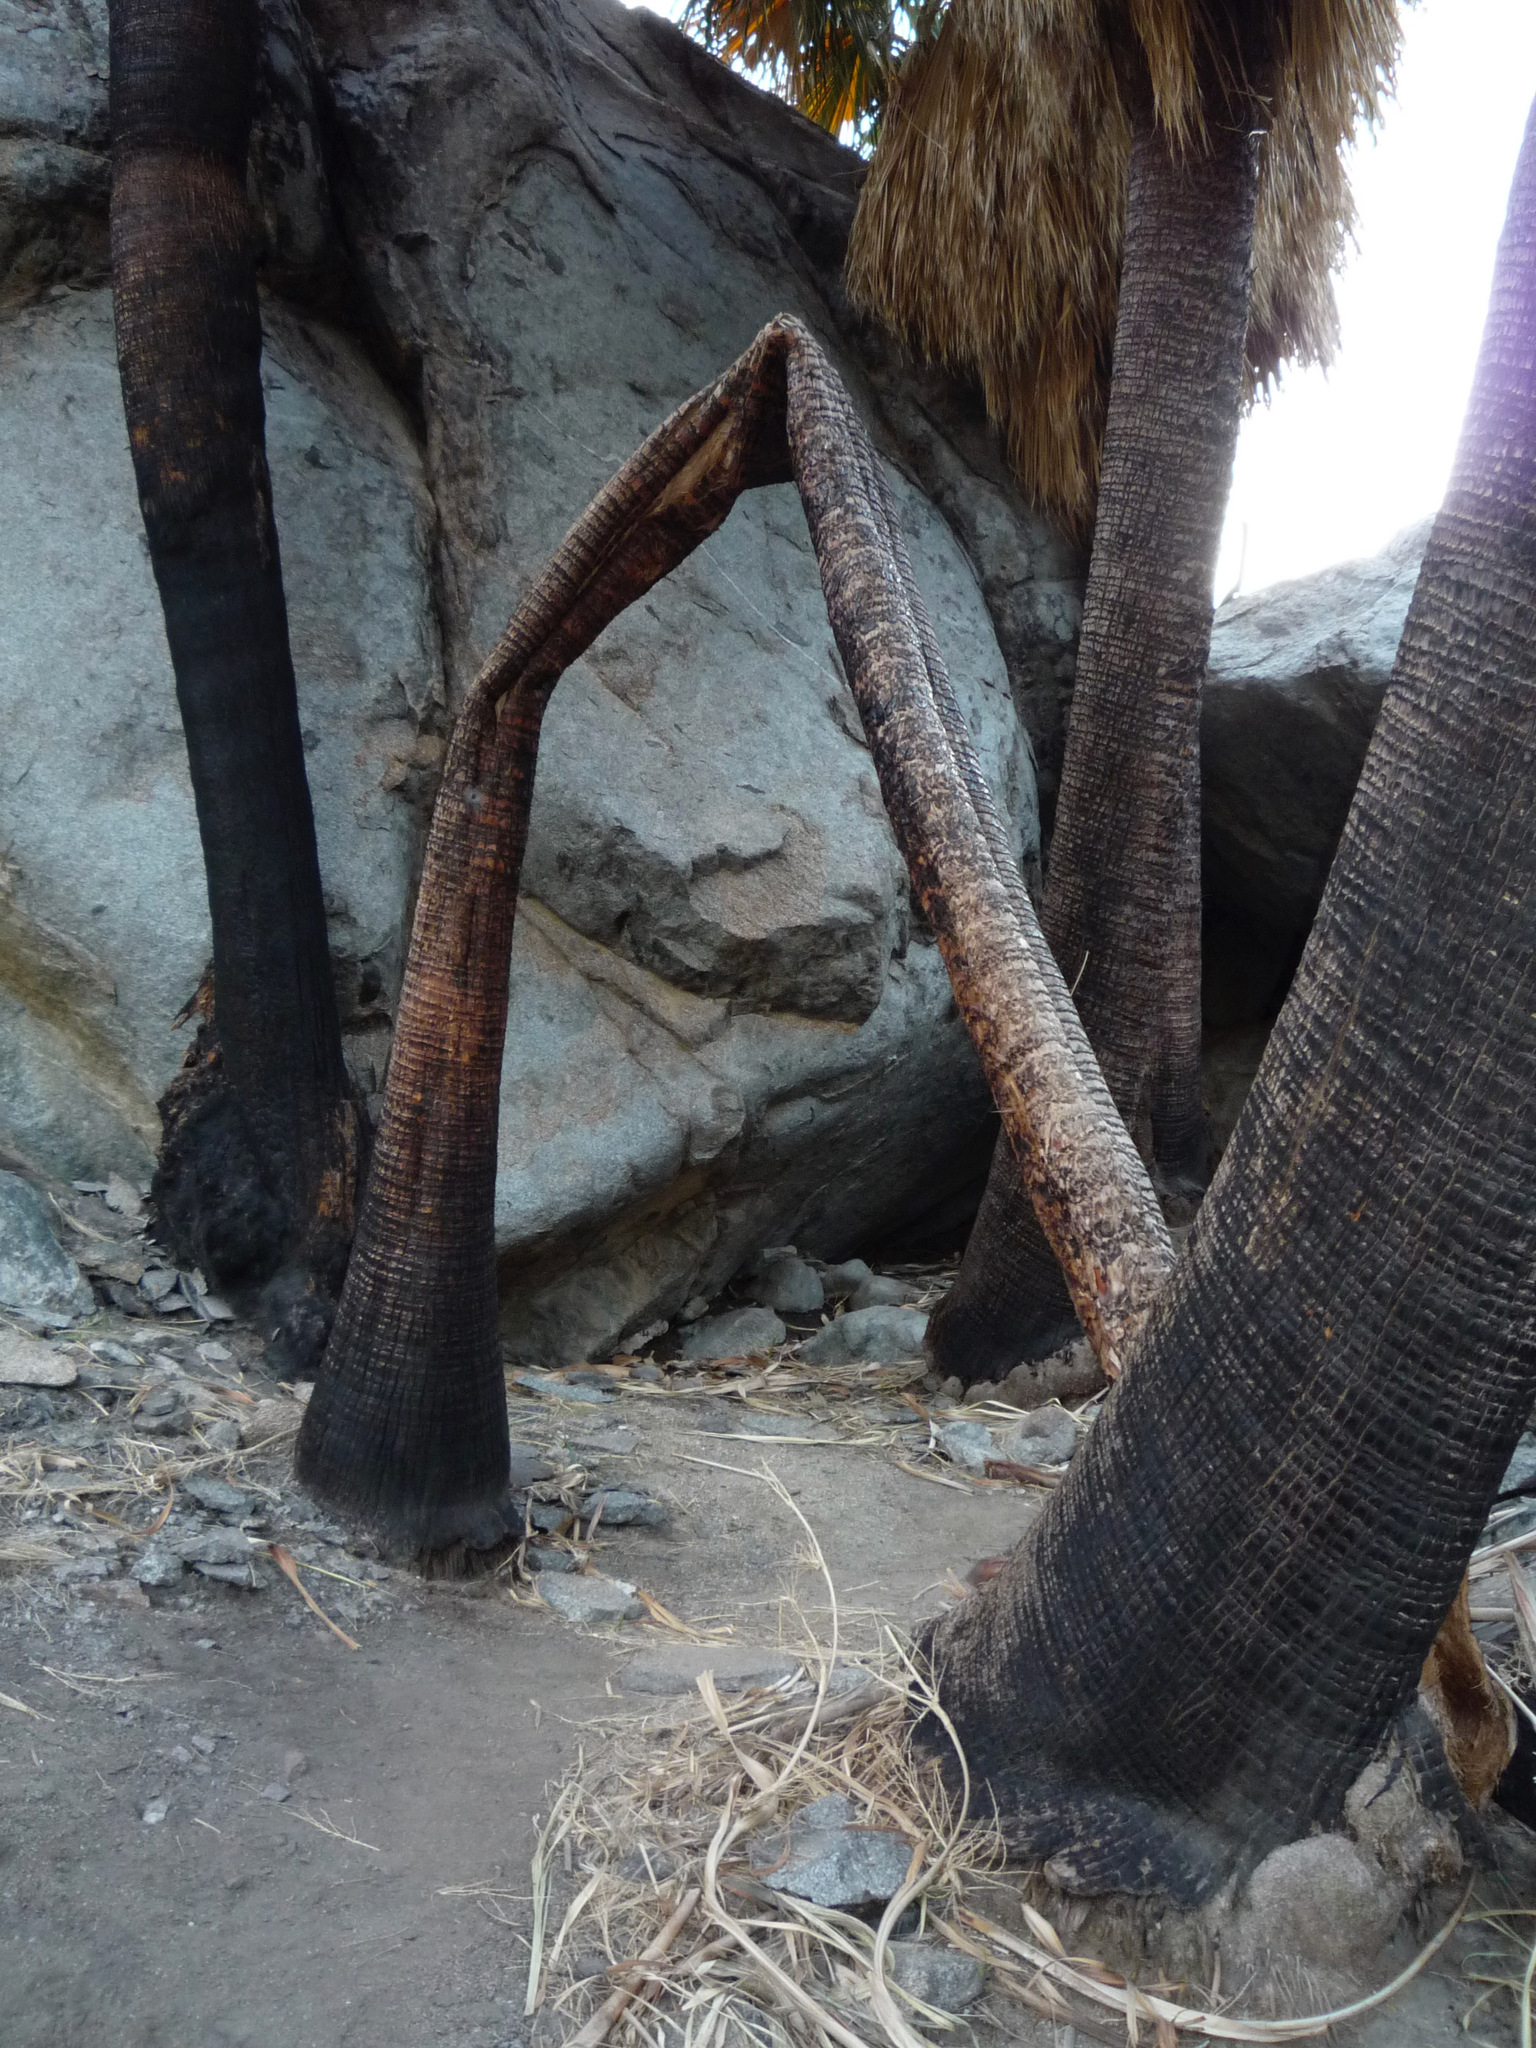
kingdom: Plantae
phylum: Tracheophyta
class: Liliopsida
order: Arecales
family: Arecaceae
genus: Washingtonia
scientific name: Washingtonia filifera
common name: California fan palm
